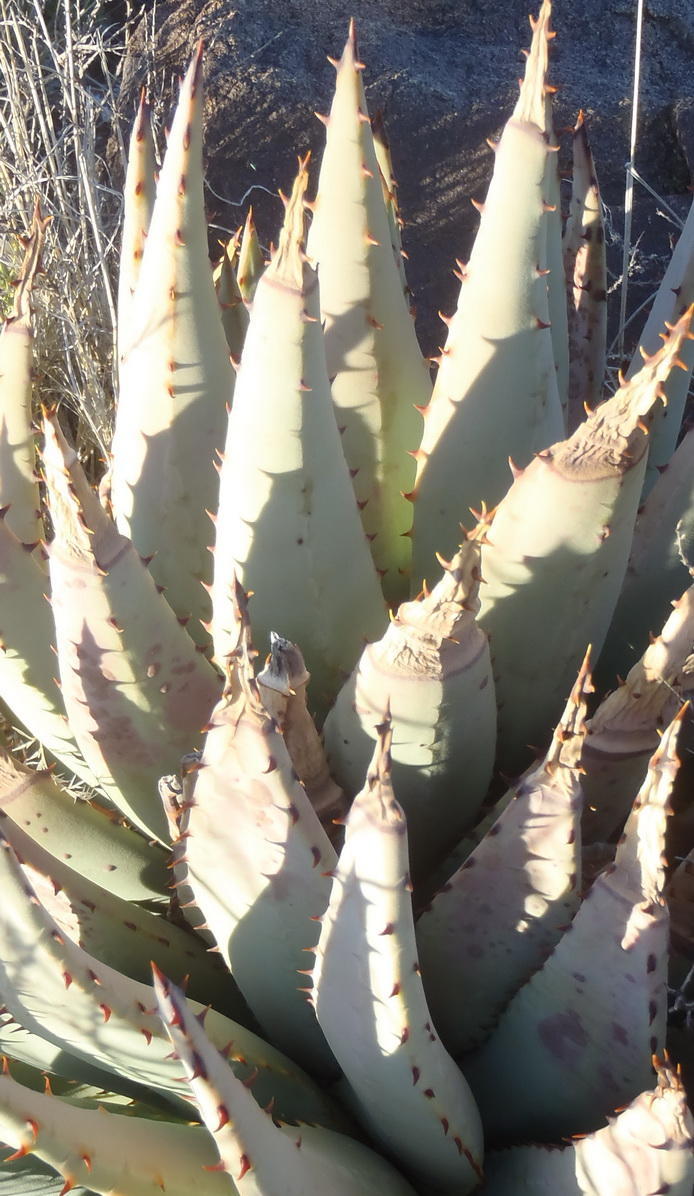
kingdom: Plantae
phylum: Tracheophyta
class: Liliopsida
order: Asparagales
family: Asphodelaceae
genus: Aloe
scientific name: Aloe claviflora
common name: Cannon aloe
